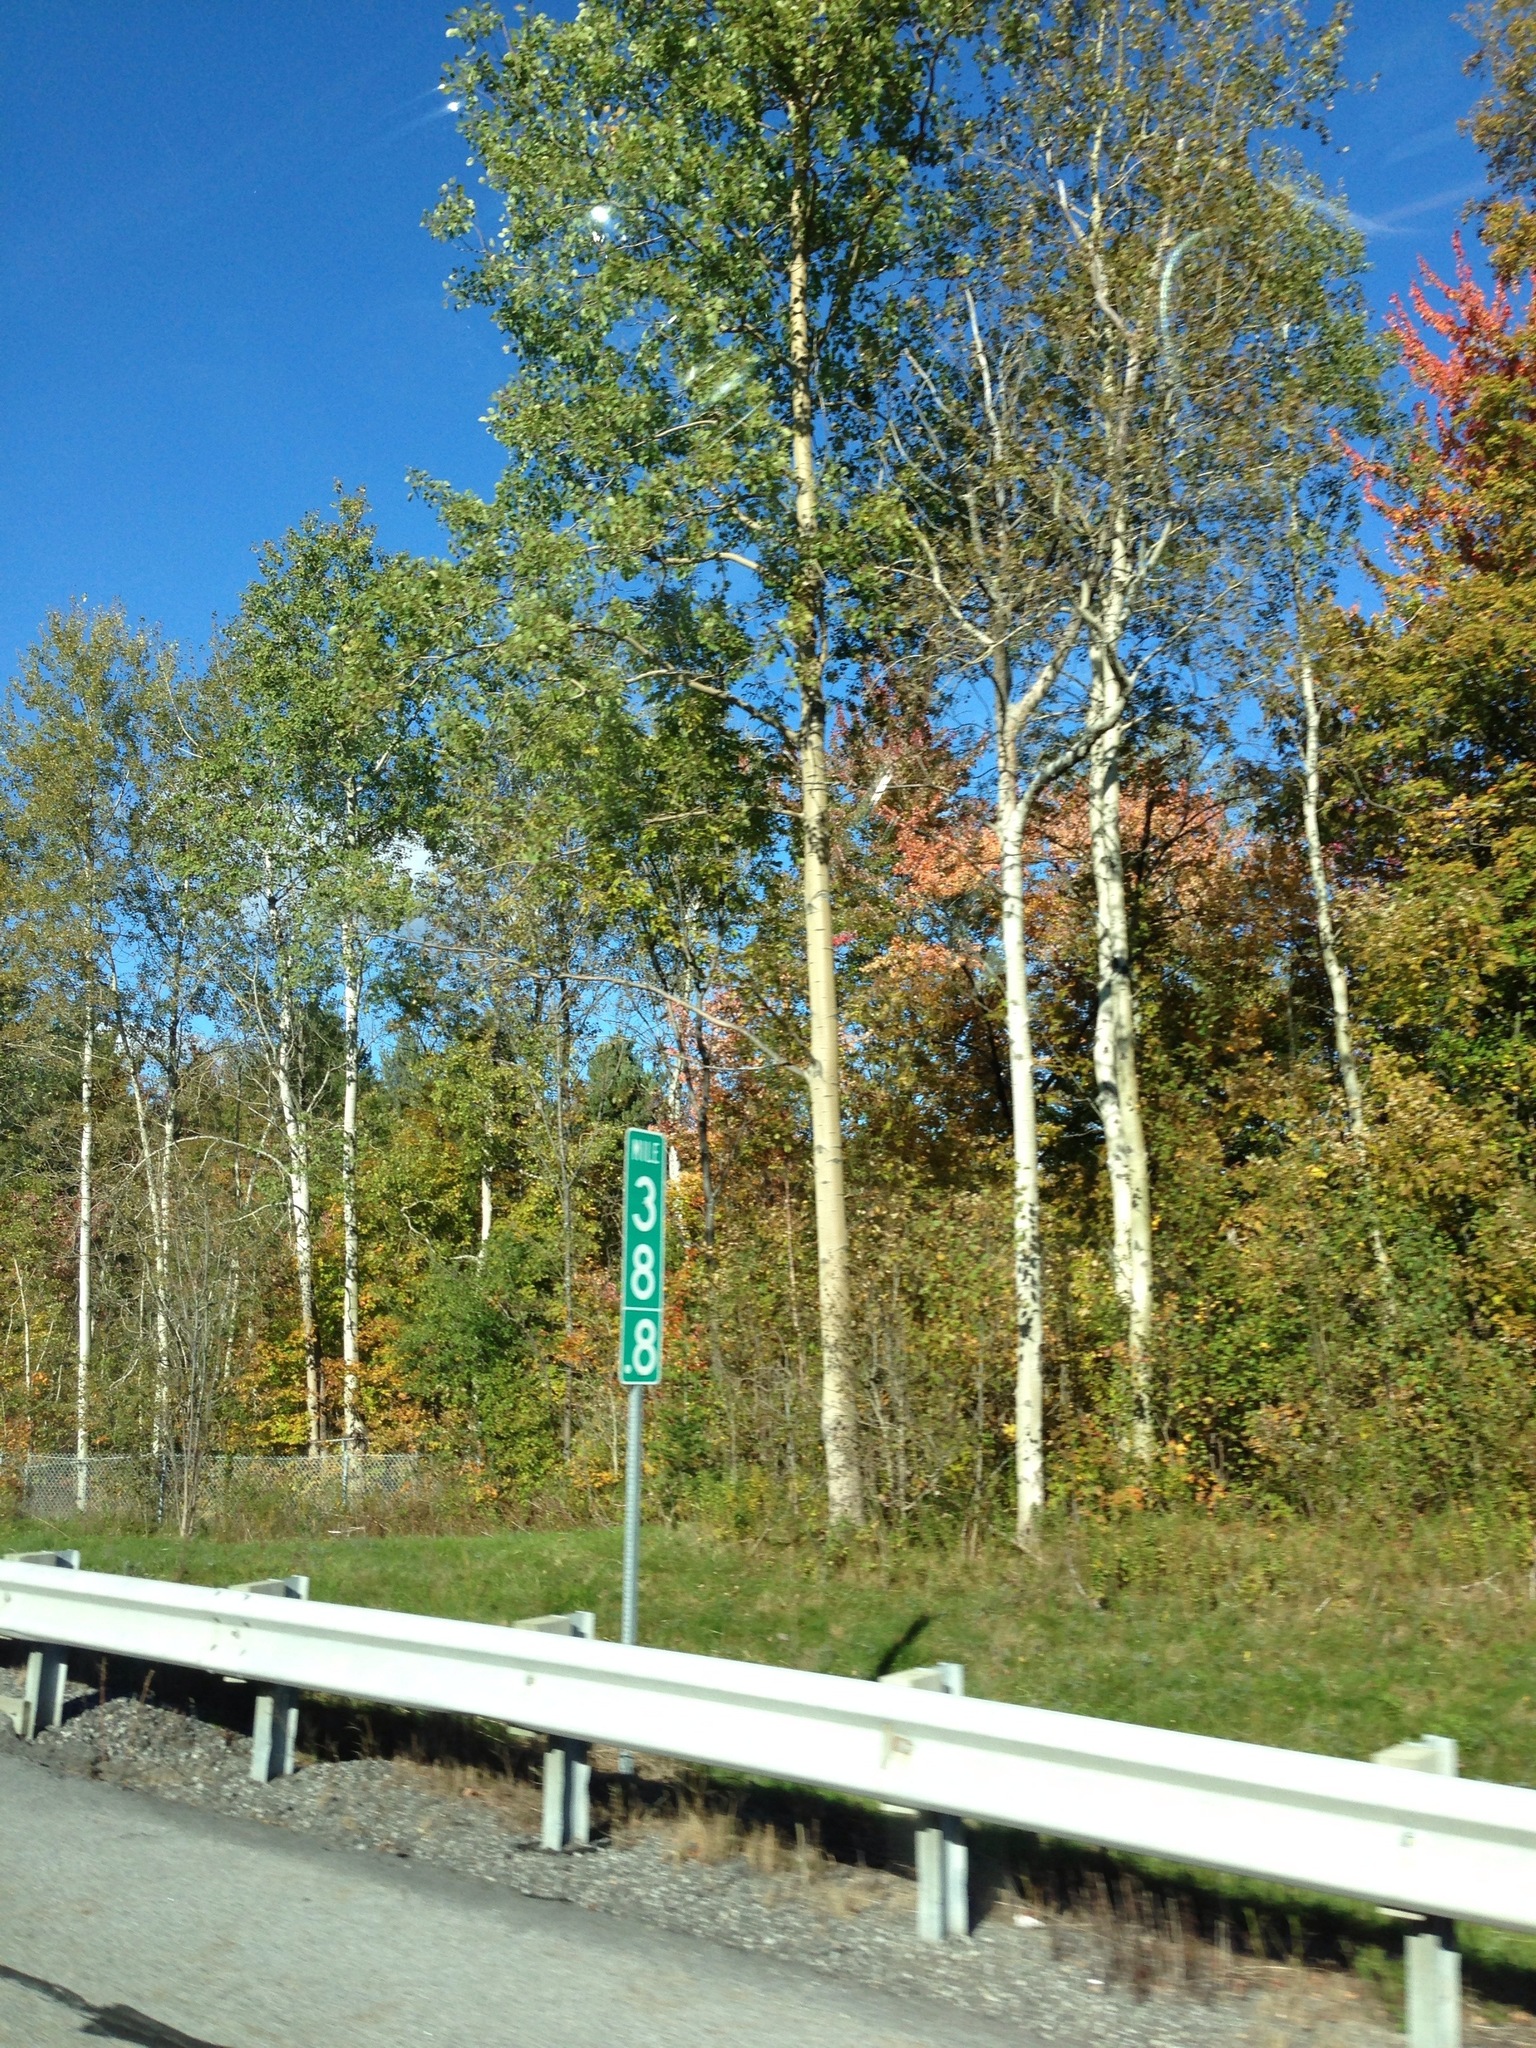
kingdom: Plantae
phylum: Tracheophyta
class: Magnoliopsida
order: Malpighiales
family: Salicaceae
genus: Populus
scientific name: Populus tremuloides
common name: Quaking aspen
